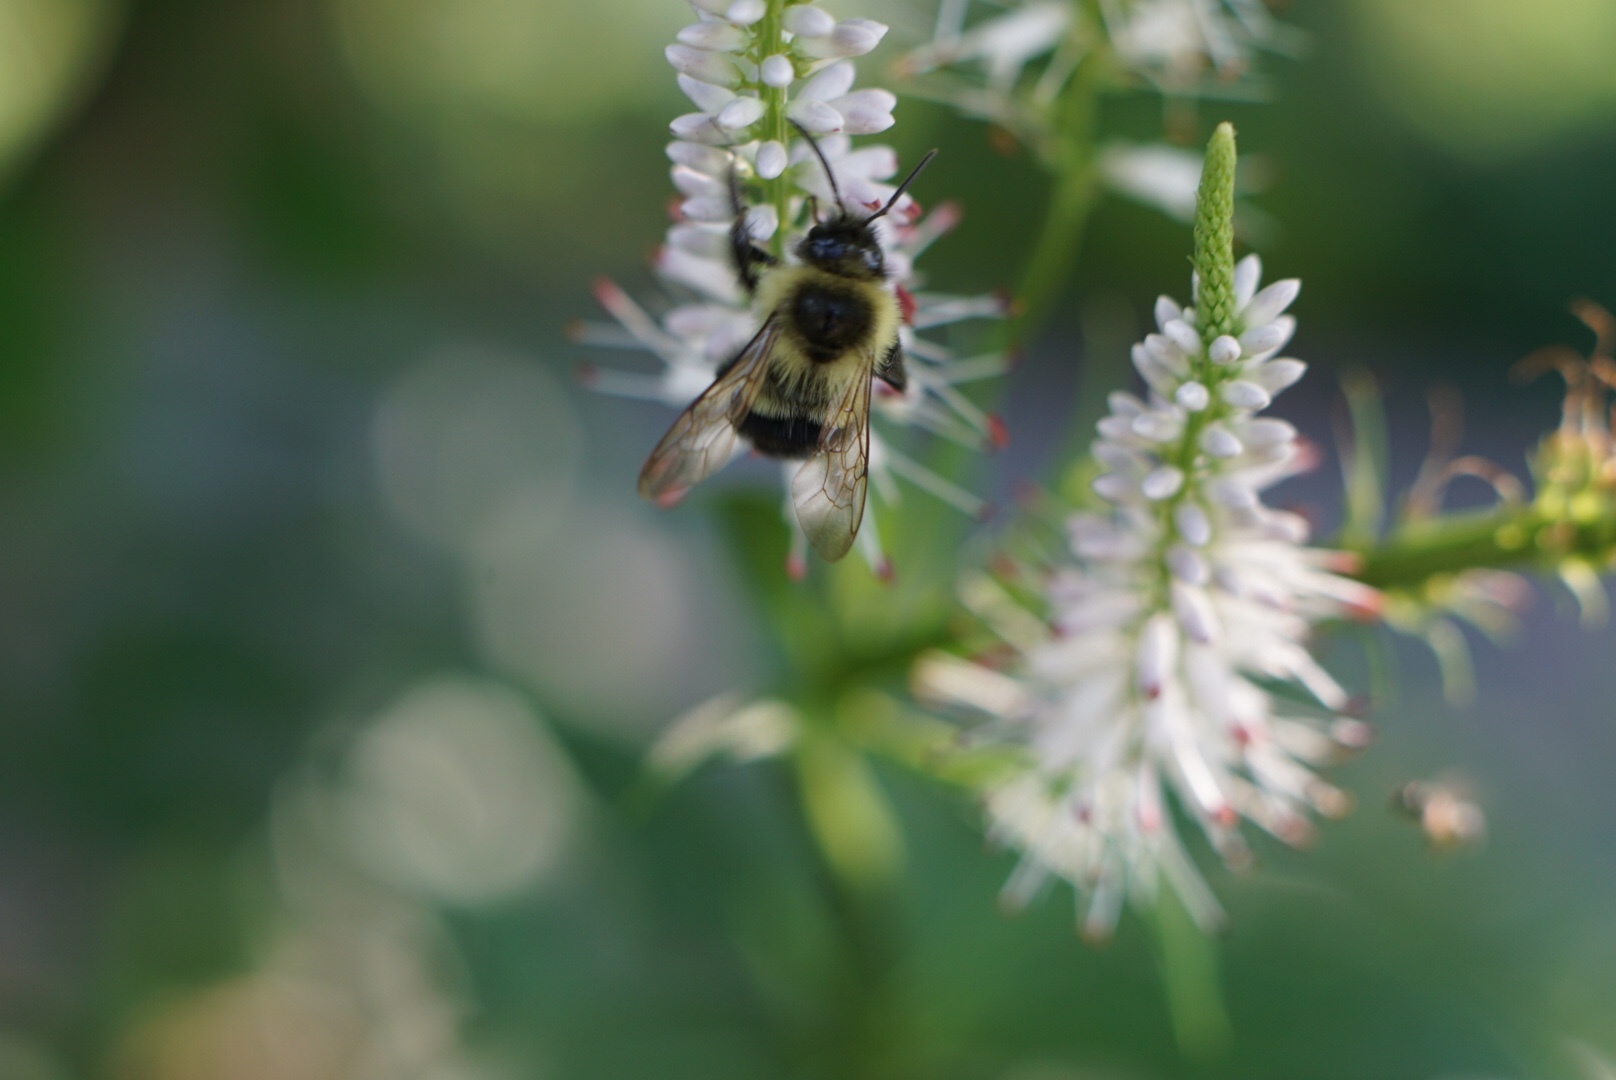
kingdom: Animalia
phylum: Arthropoda
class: Insecta
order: Hymenoptera
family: Apidae
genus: Bombus
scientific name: Bombus impatiens
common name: Common eastern bumble bee
